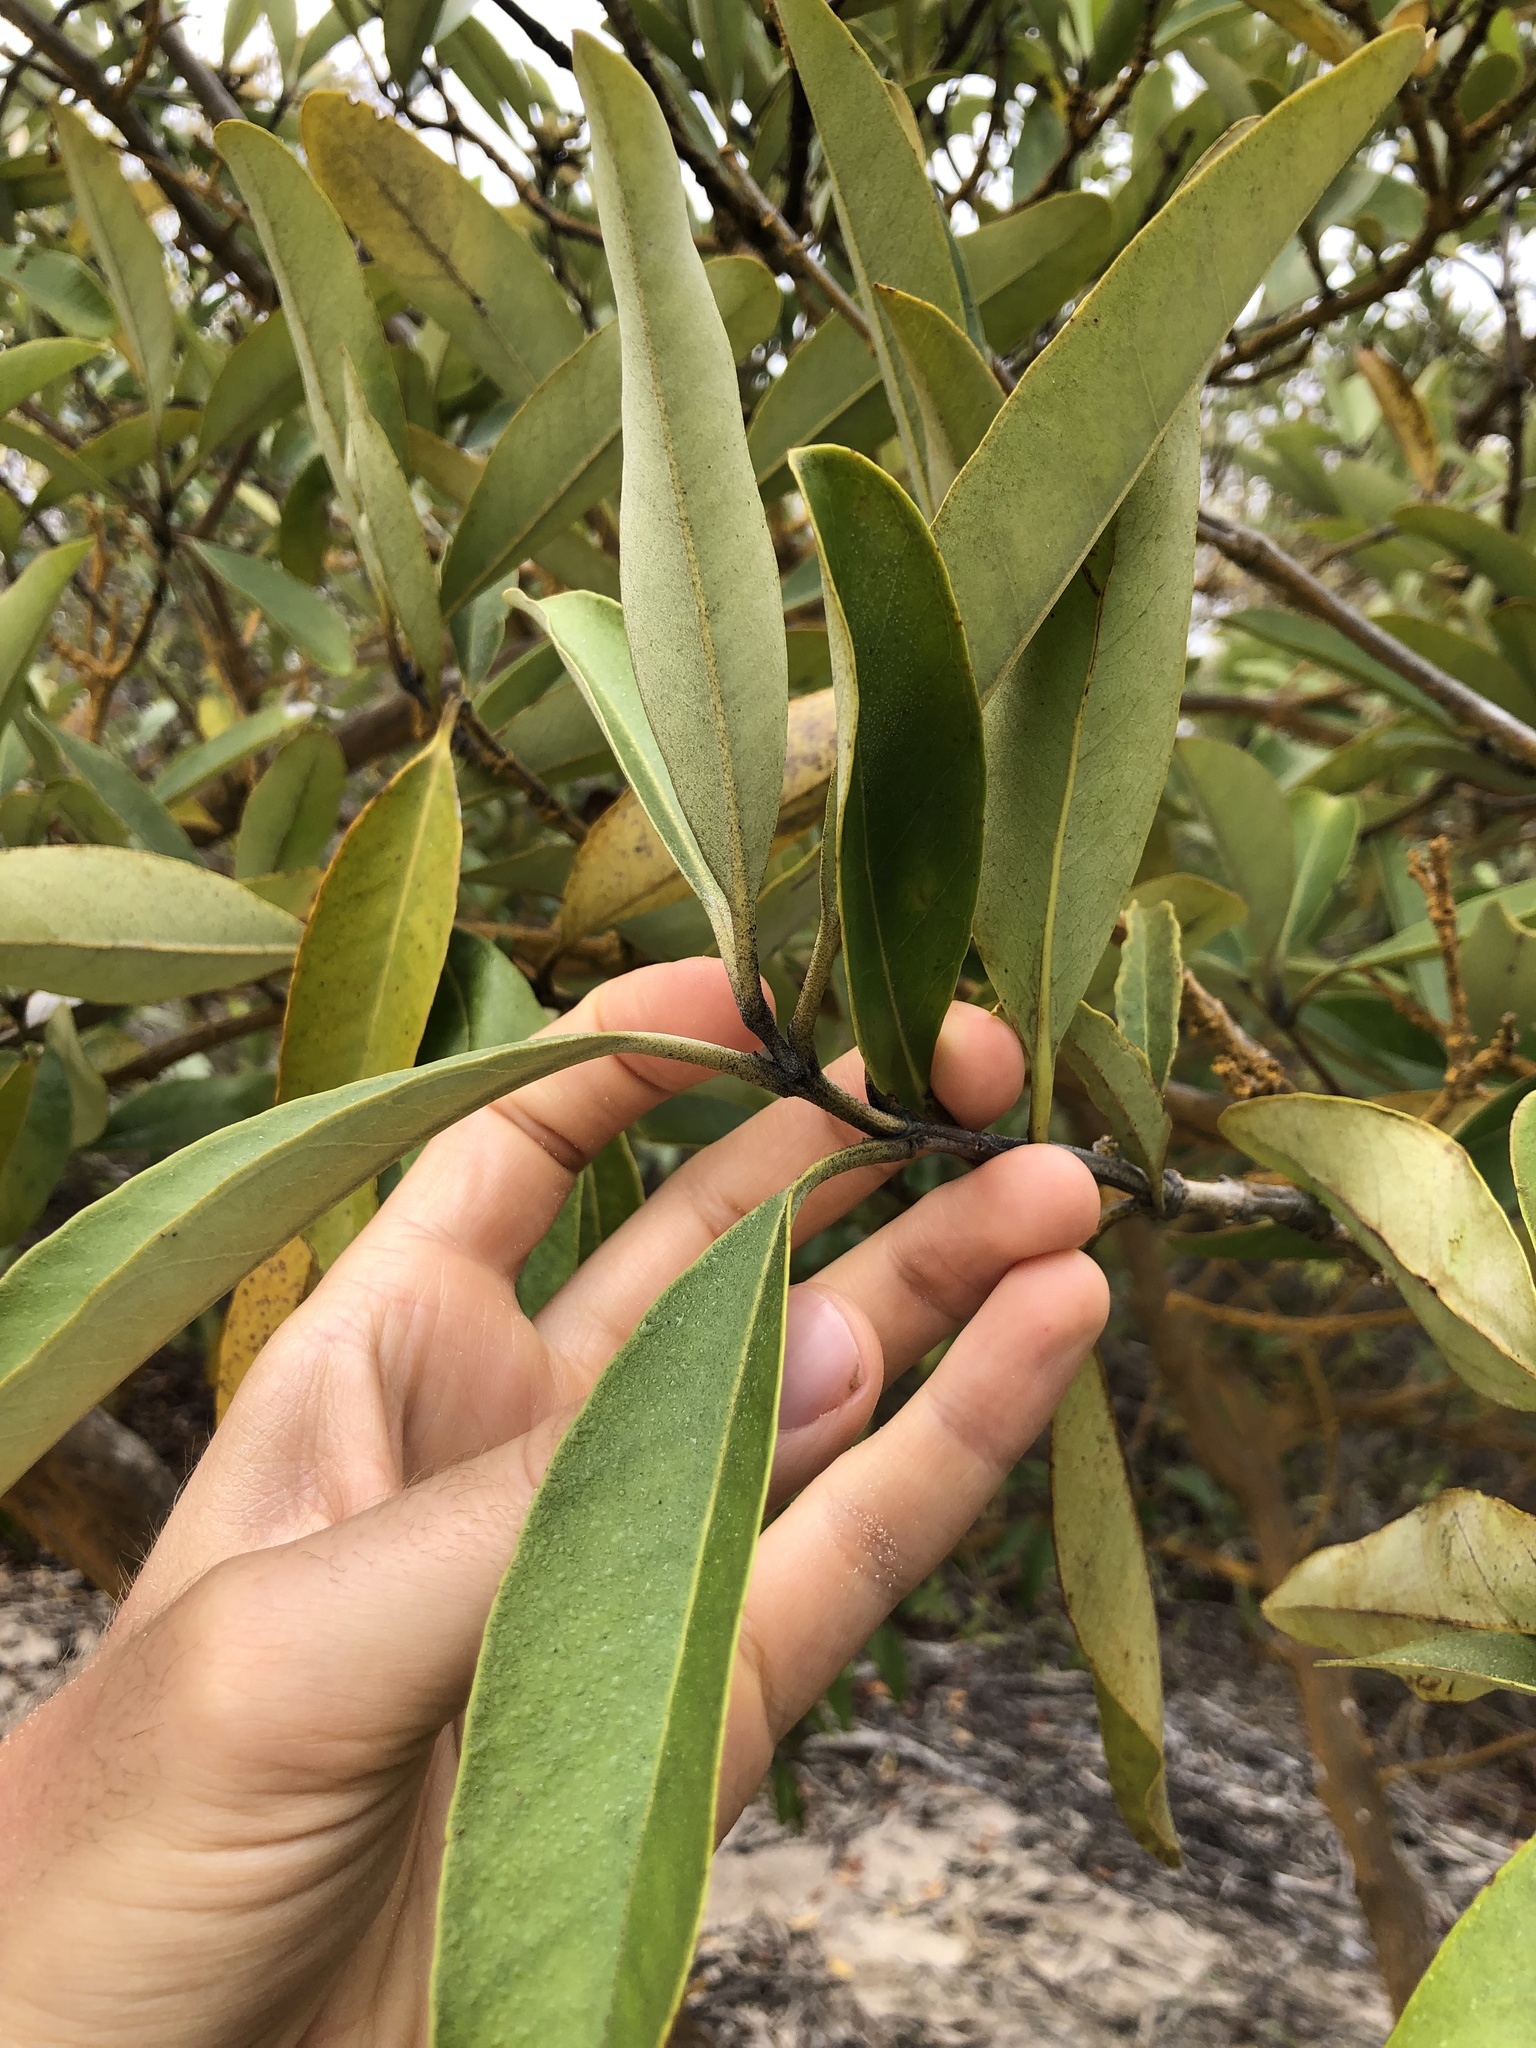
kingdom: Plantae
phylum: Tracheophyta
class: Magnoliopsida
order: Lamiales
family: Acanthaceae
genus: Avicennia
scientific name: Avicennia germinans
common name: Black mangrove
